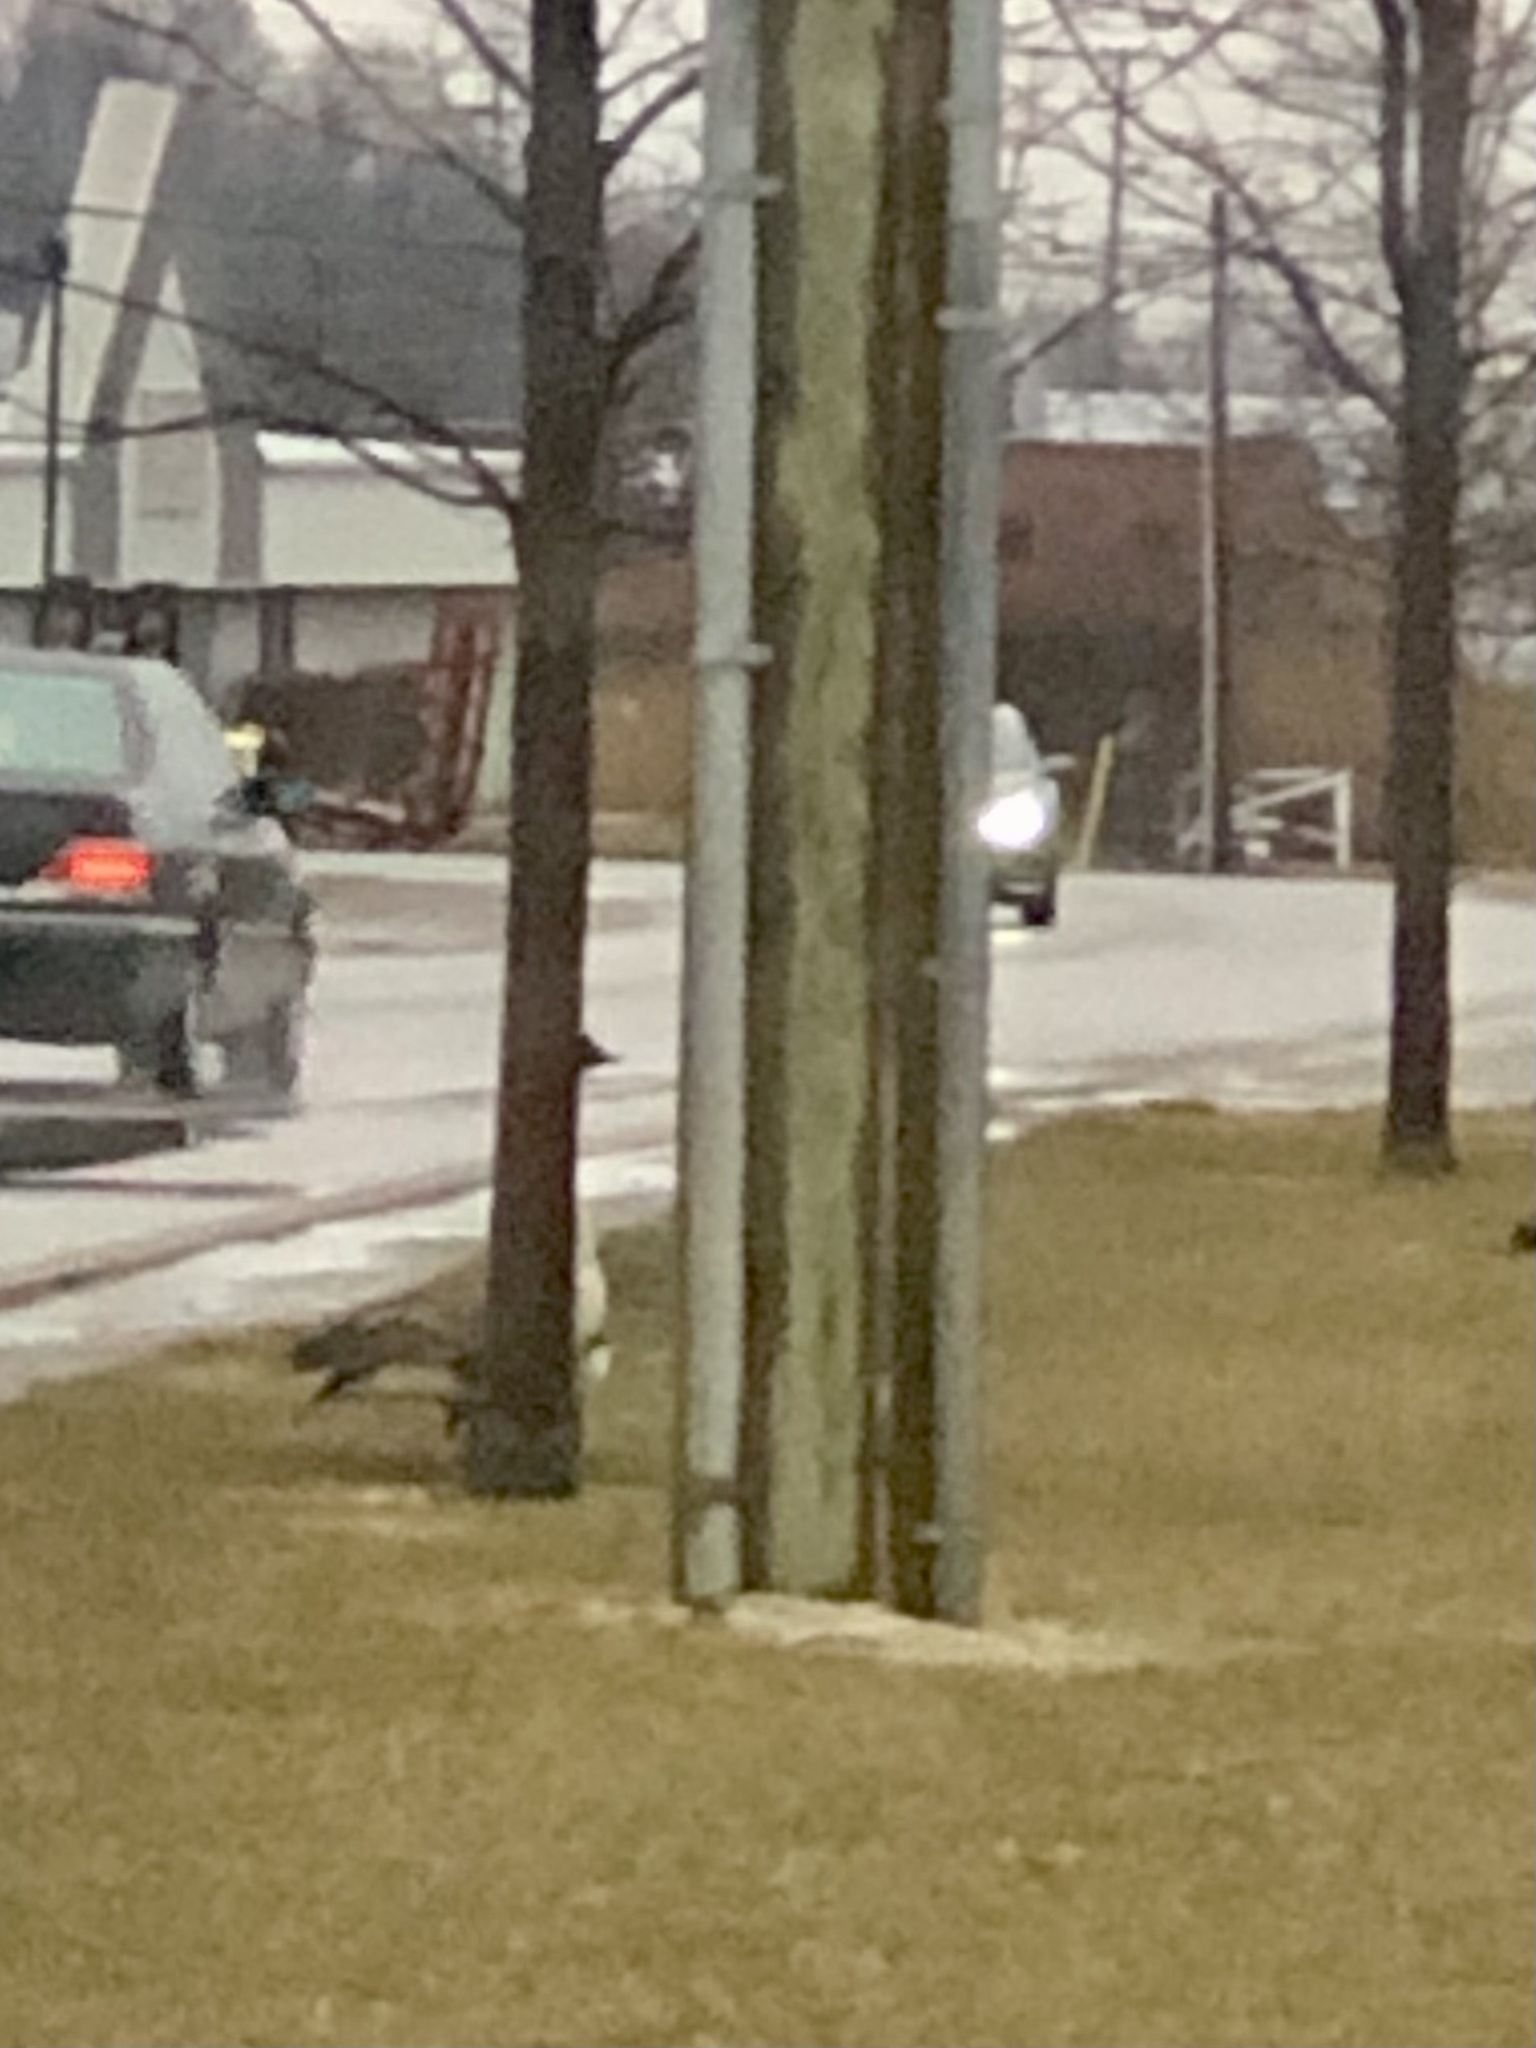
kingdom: Animalia
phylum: Chordata
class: Aves
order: Anseriformes
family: Anatidae
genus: Branta
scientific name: Branta canadensis
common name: Canada goose
